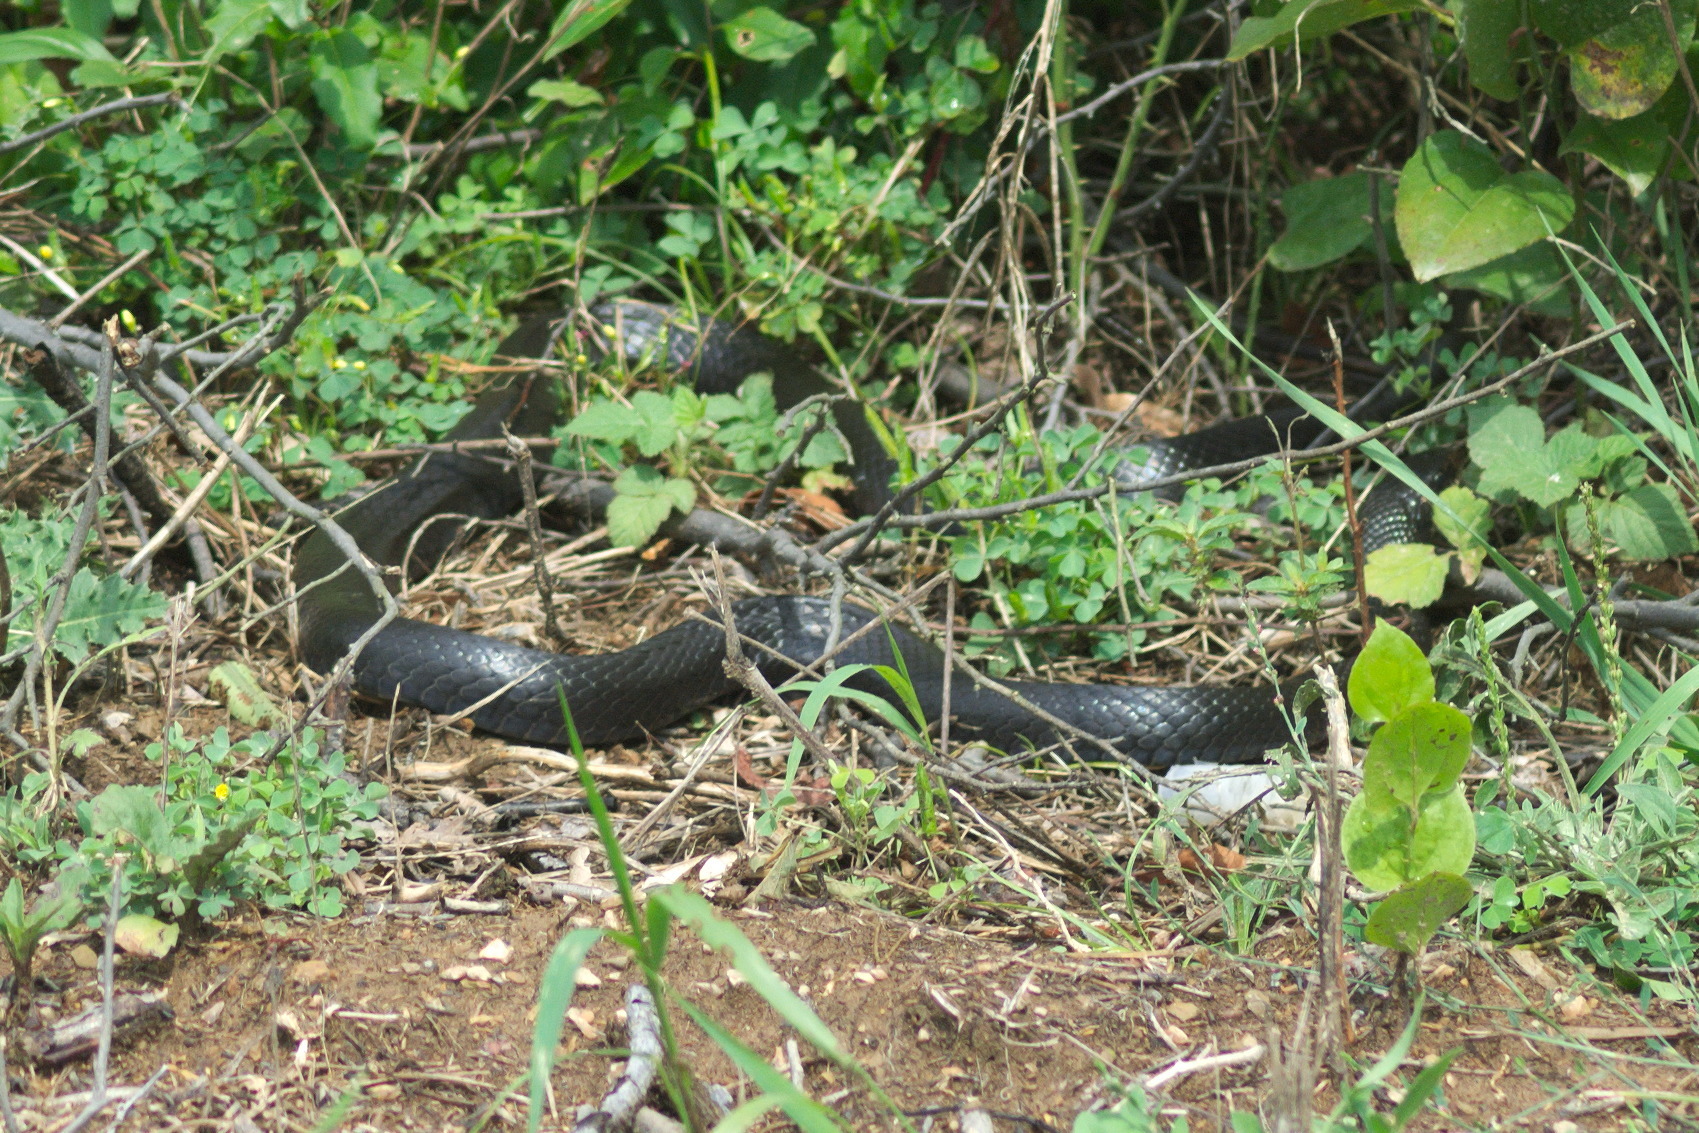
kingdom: Animalia
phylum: Chordata
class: Squamata
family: Colubridae
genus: Coluber
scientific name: Coluber constrictor
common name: Eastern racer
